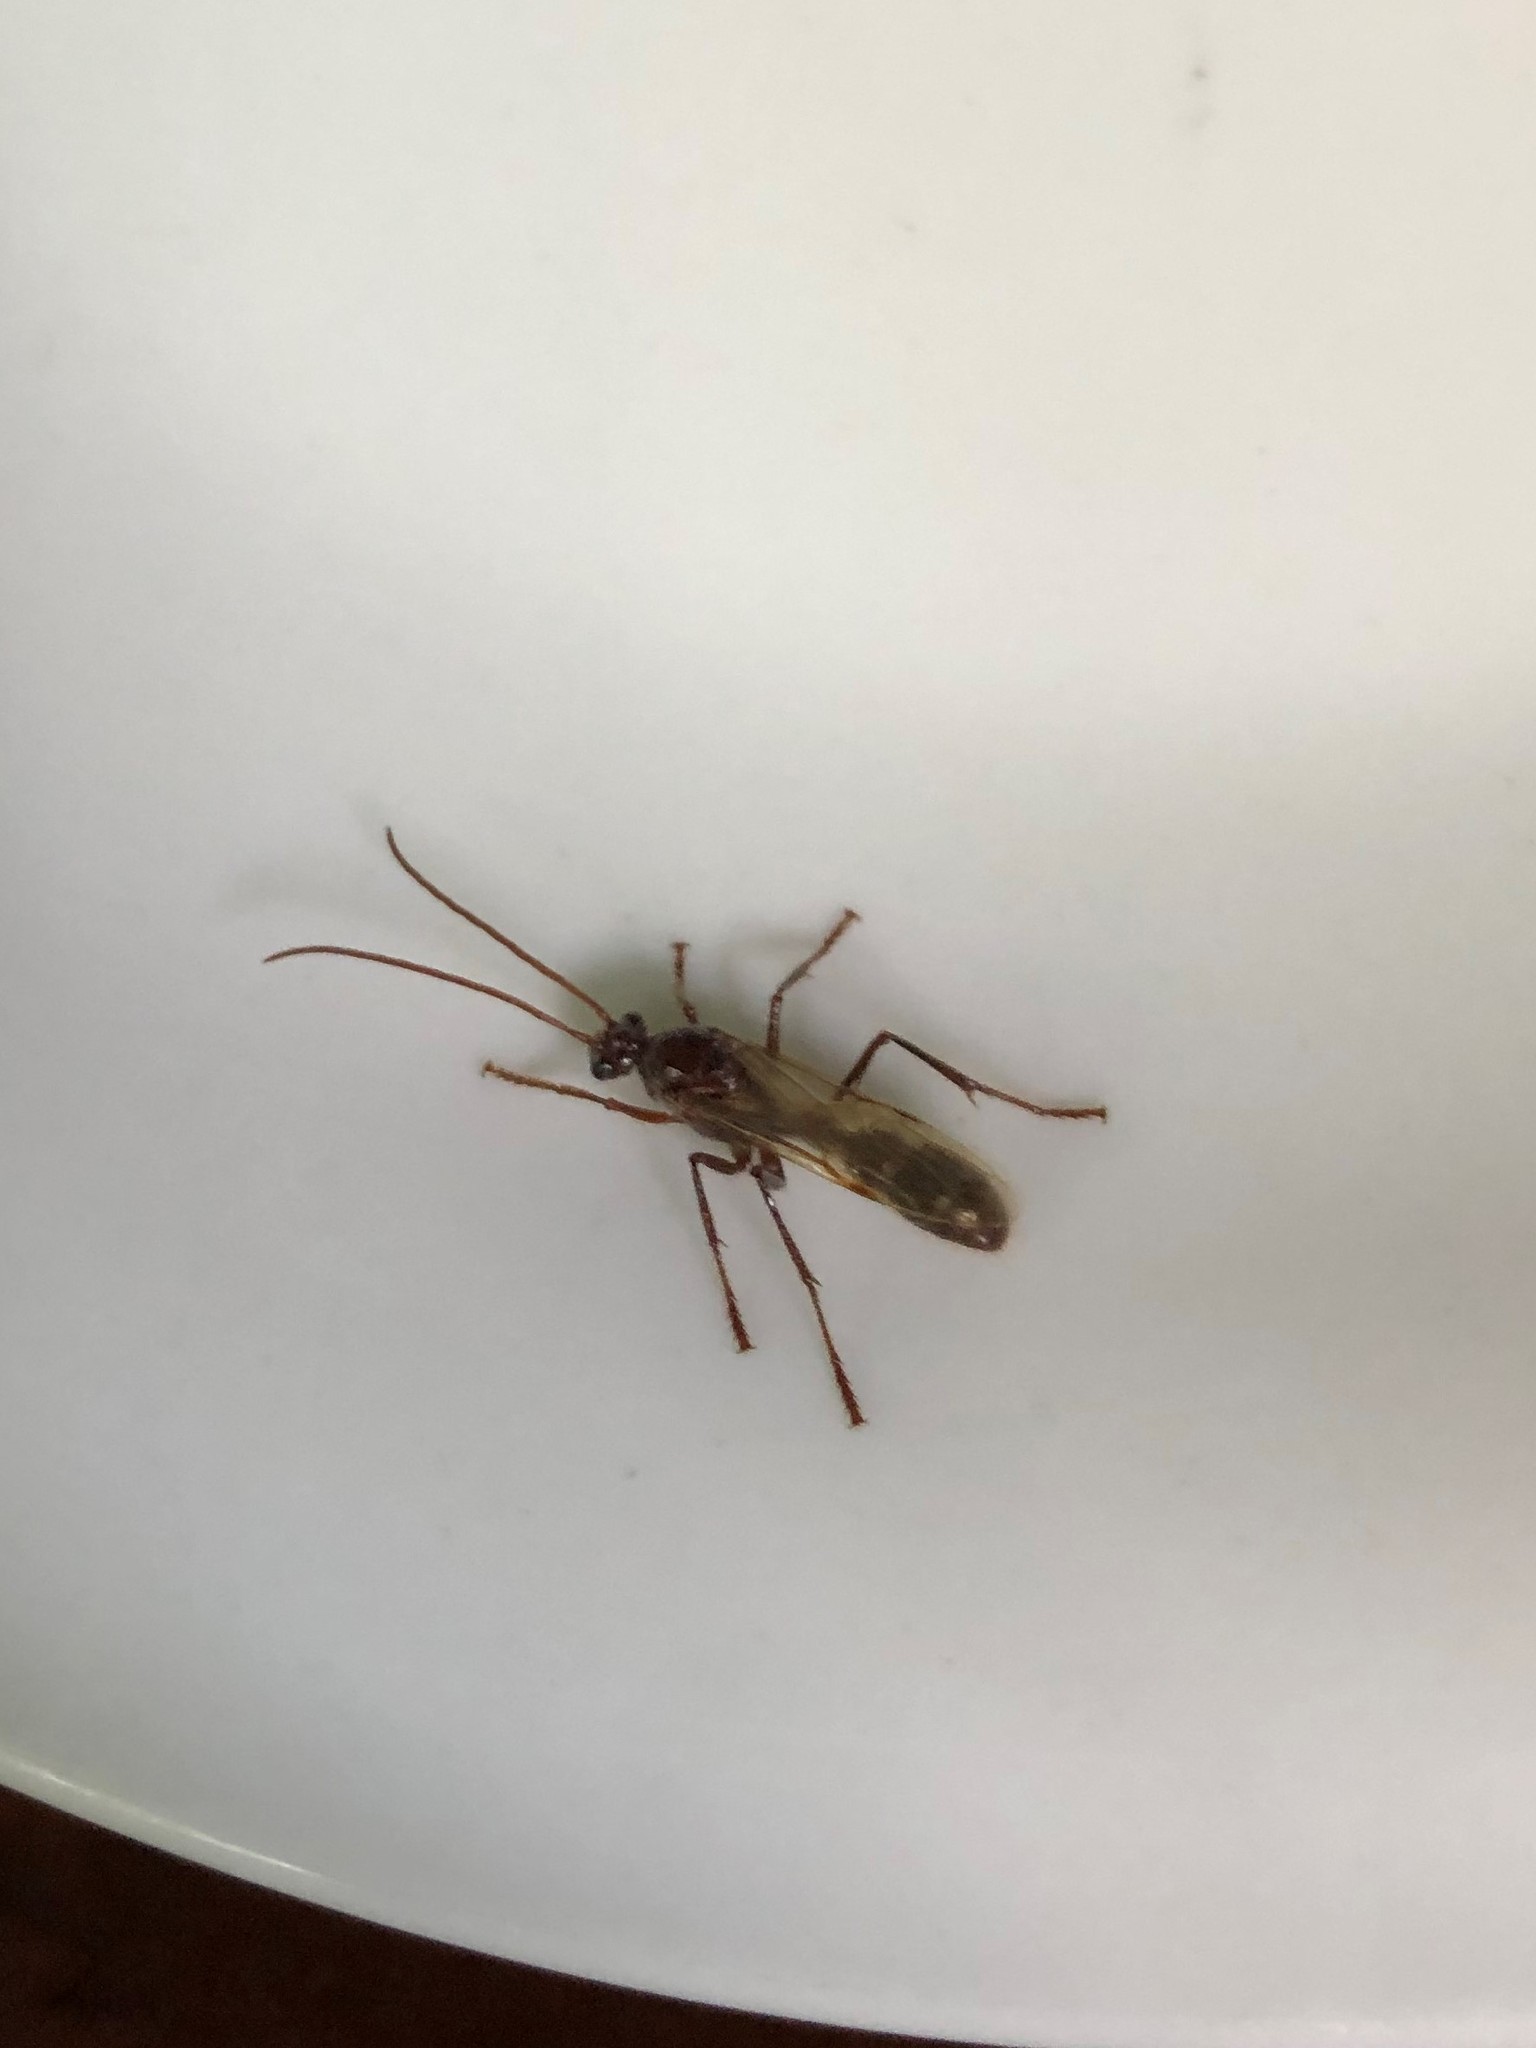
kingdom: Animalia
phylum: Arthropoda
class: Insecta
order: Hymenoptera
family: Formicidae
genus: Paraponera
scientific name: Paraponera clavata
